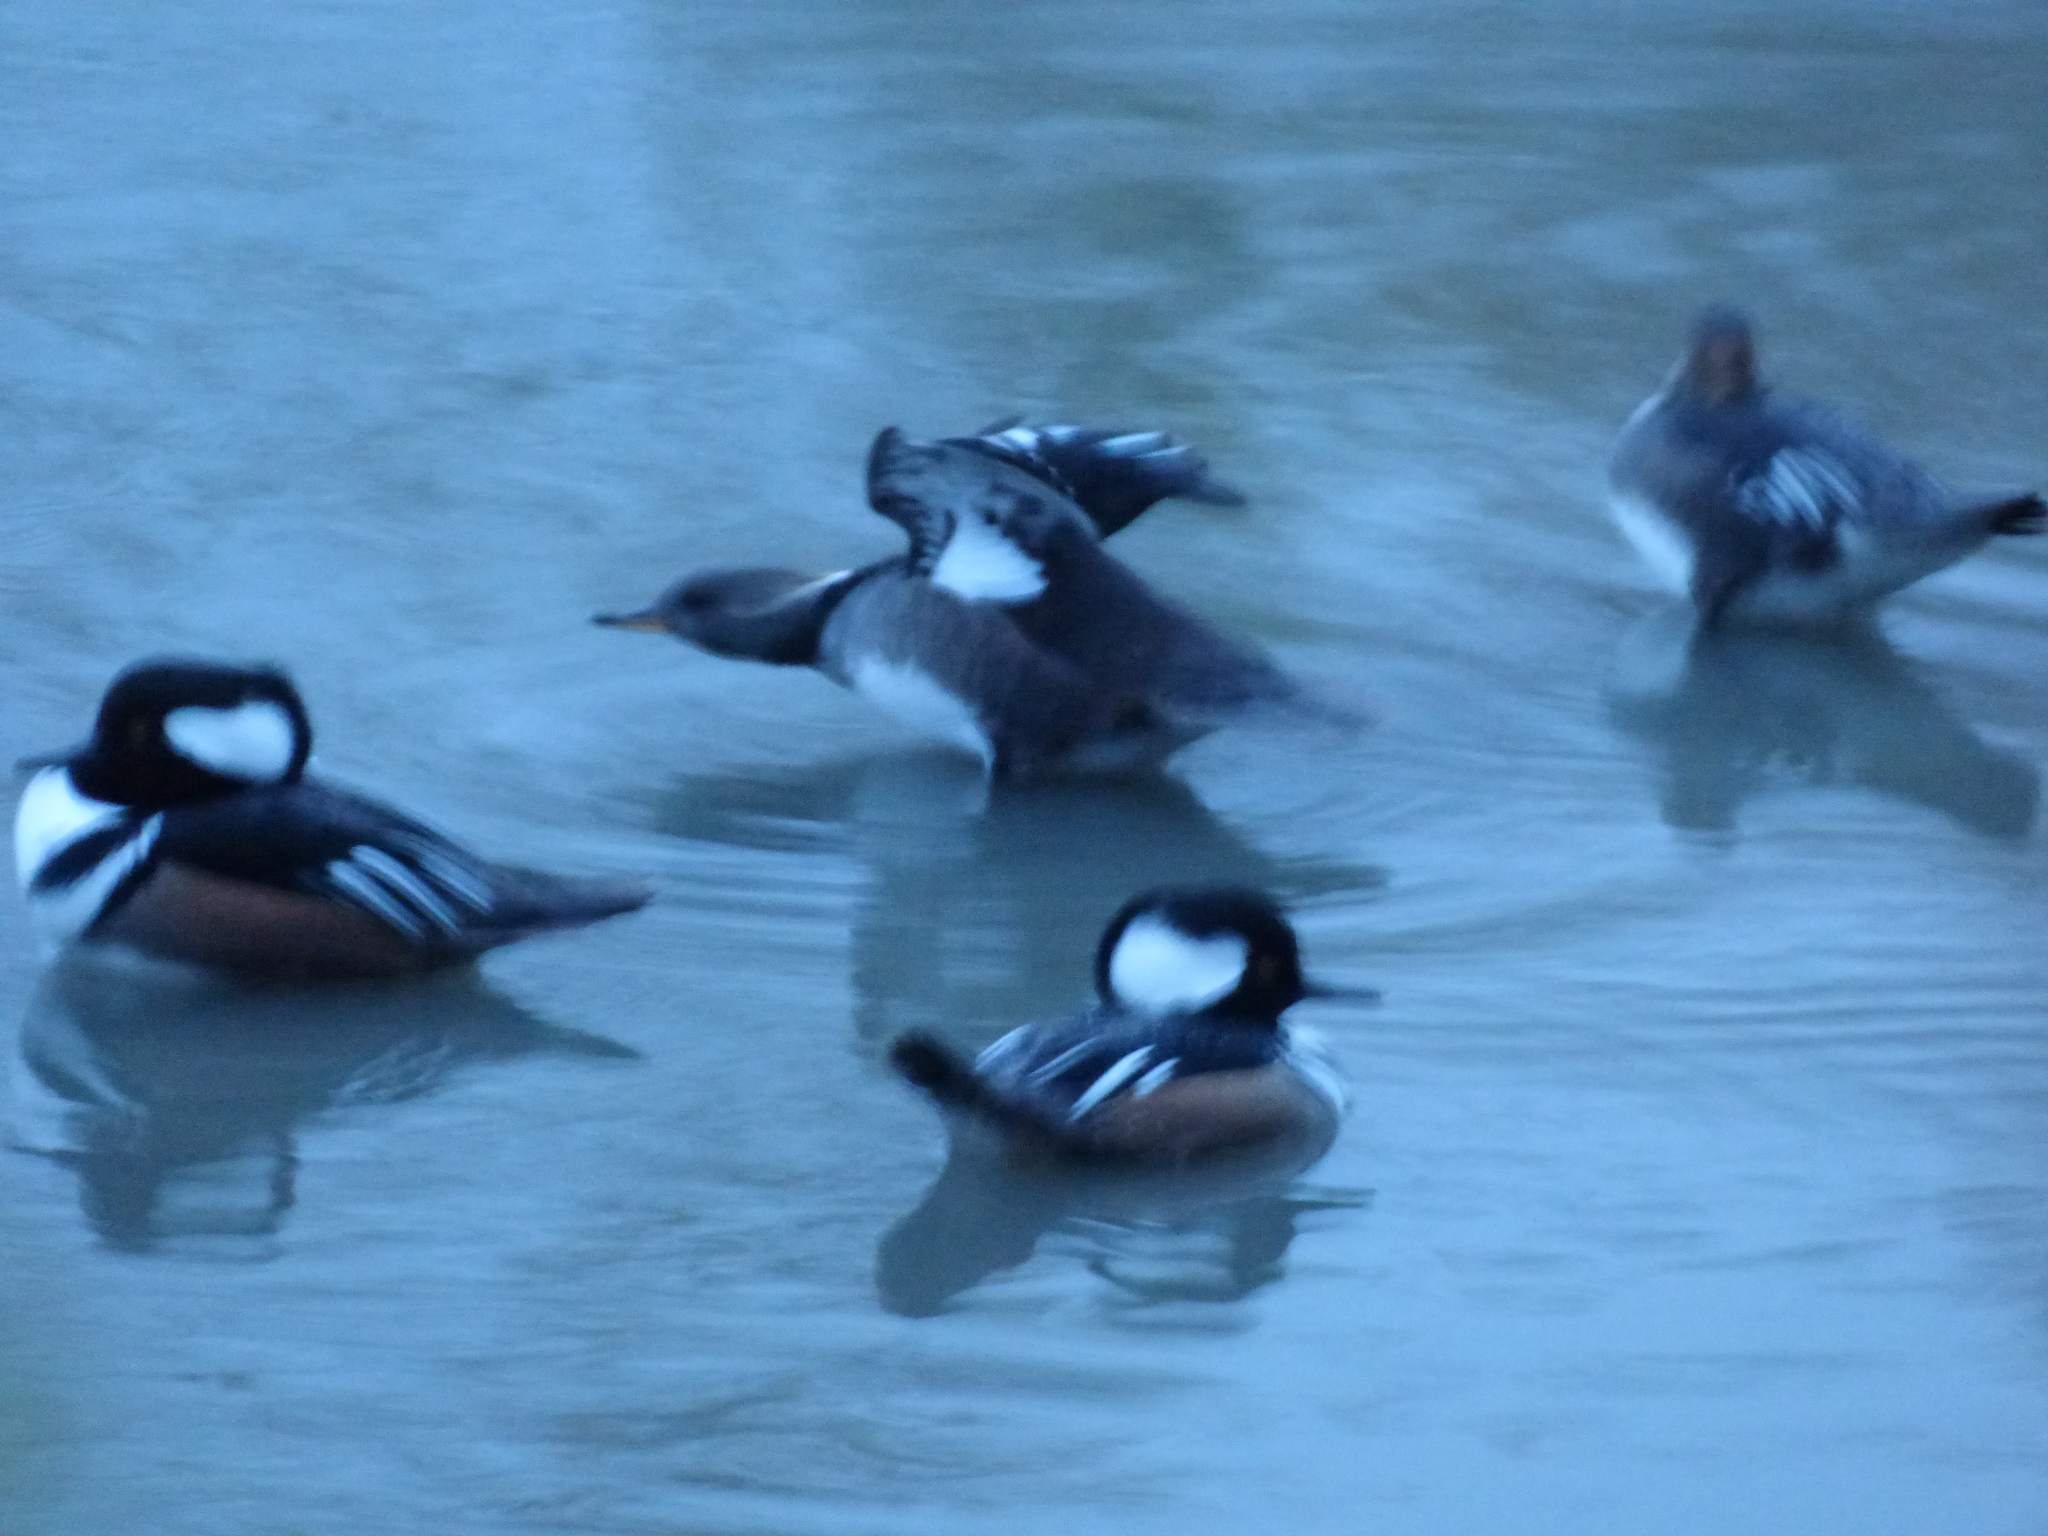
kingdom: Animalia
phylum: Chordata
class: Aves
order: Anseriformes
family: Anatidae
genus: Lophodytes
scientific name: Lophodytes cucullatus
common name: Hooded merganser
